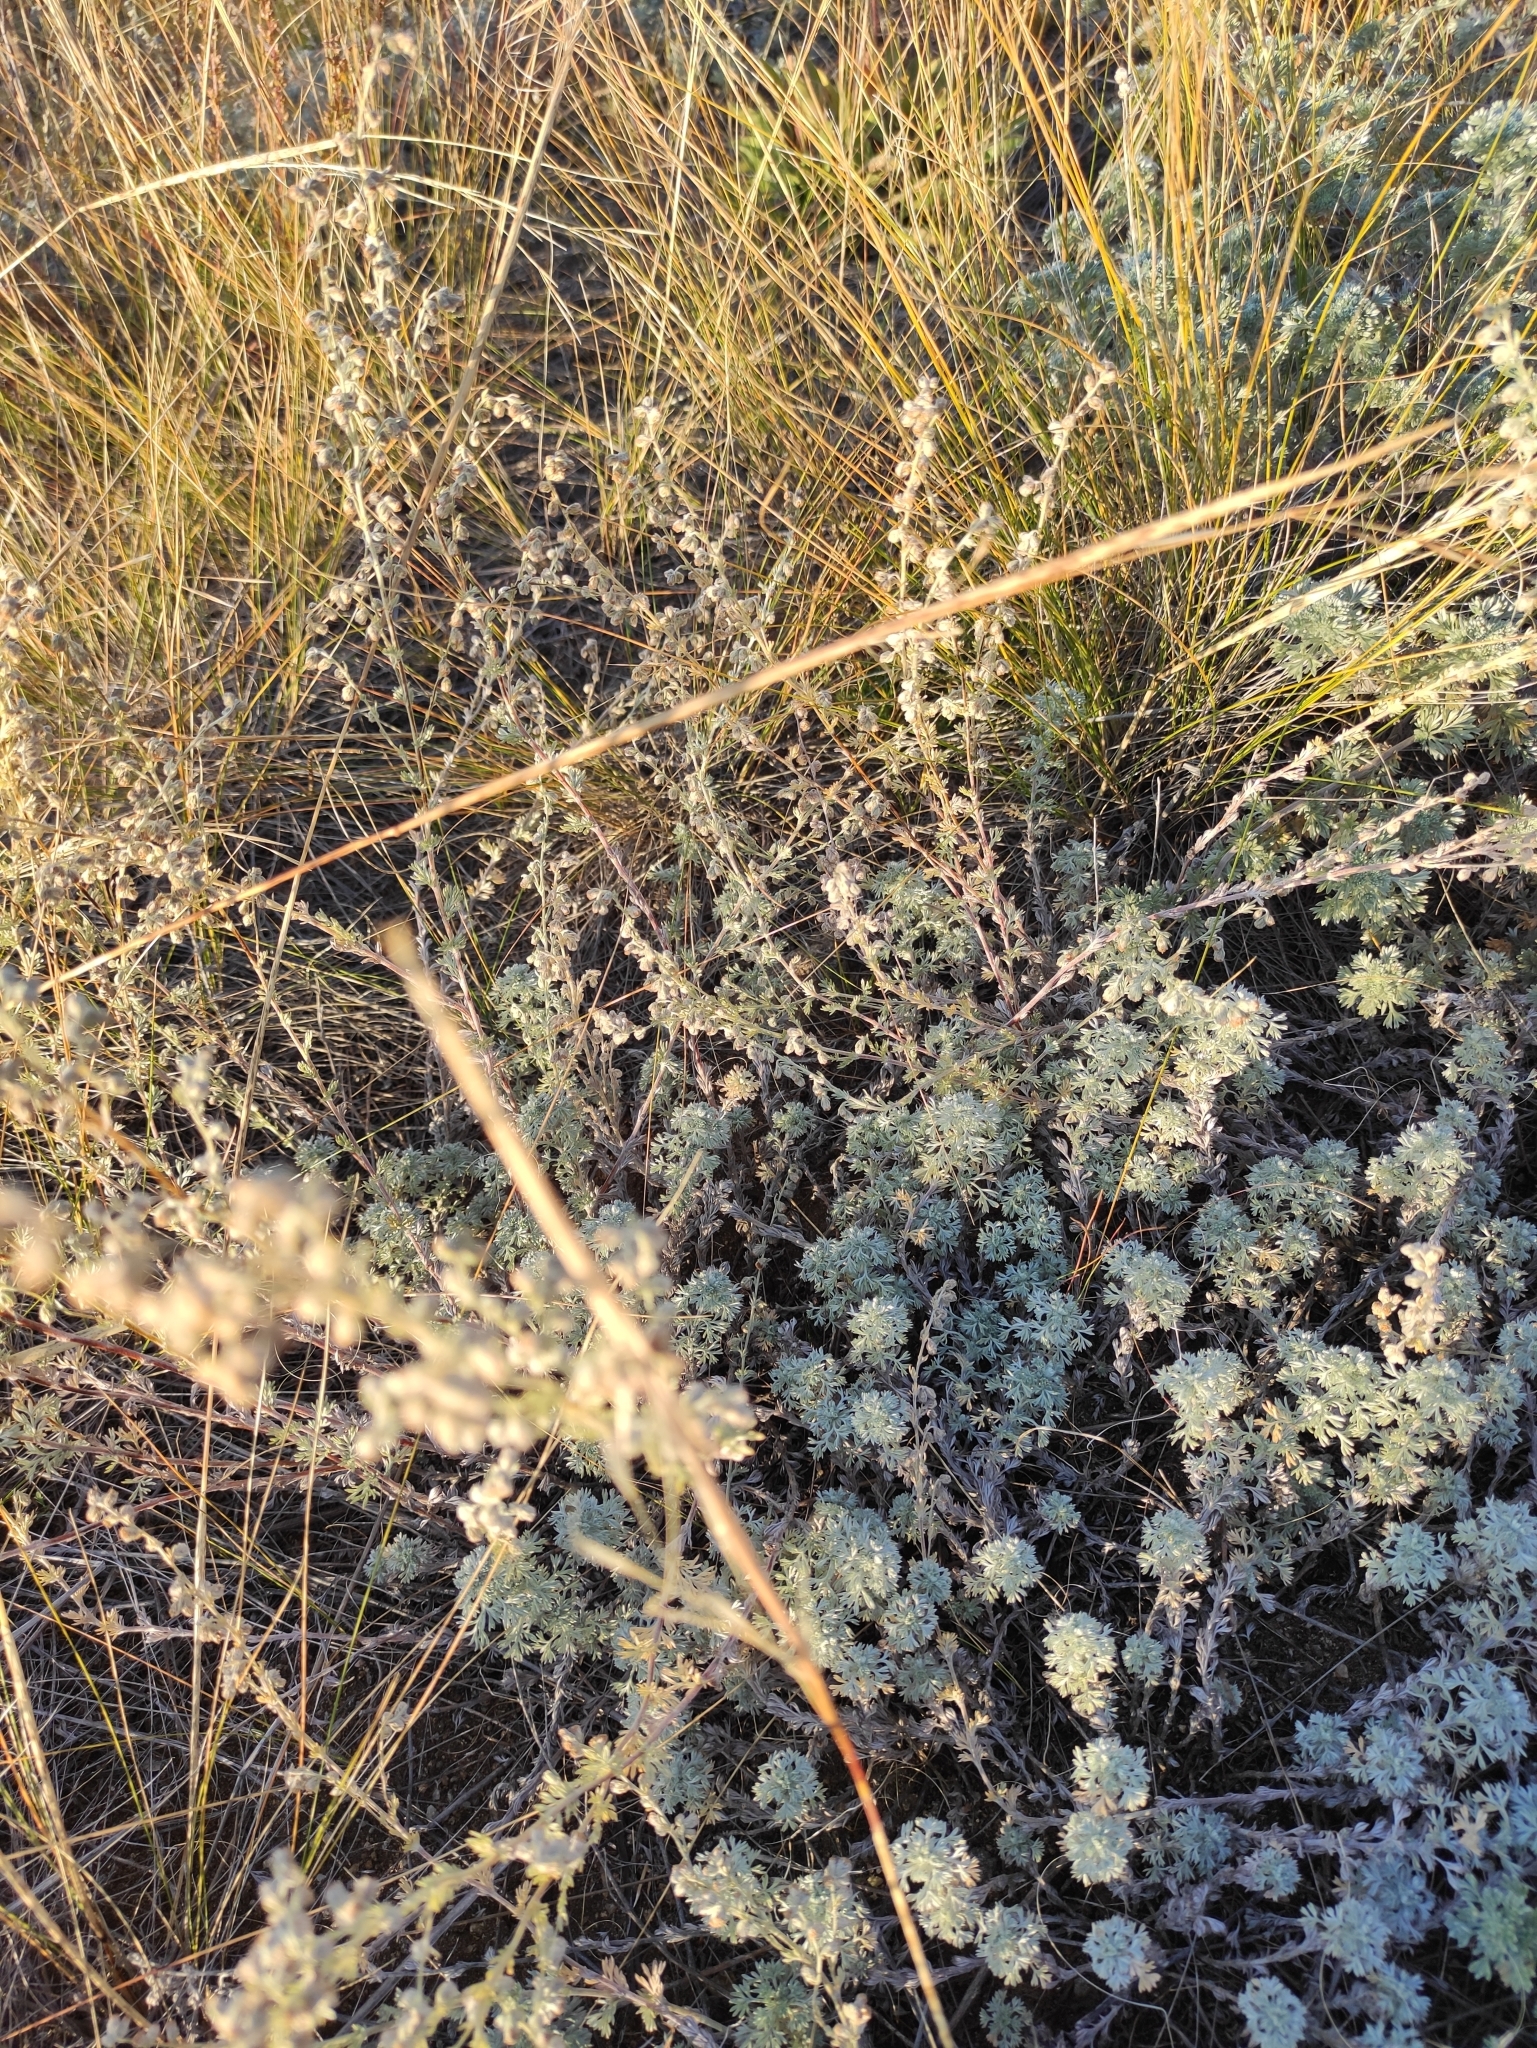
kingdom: Plantae
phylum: Tracheophyta
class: Magnoliopsida
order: Asterales
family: Asteraceae
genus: Artemisia
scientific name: Artemisia frigida
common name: Prairie sagewort
